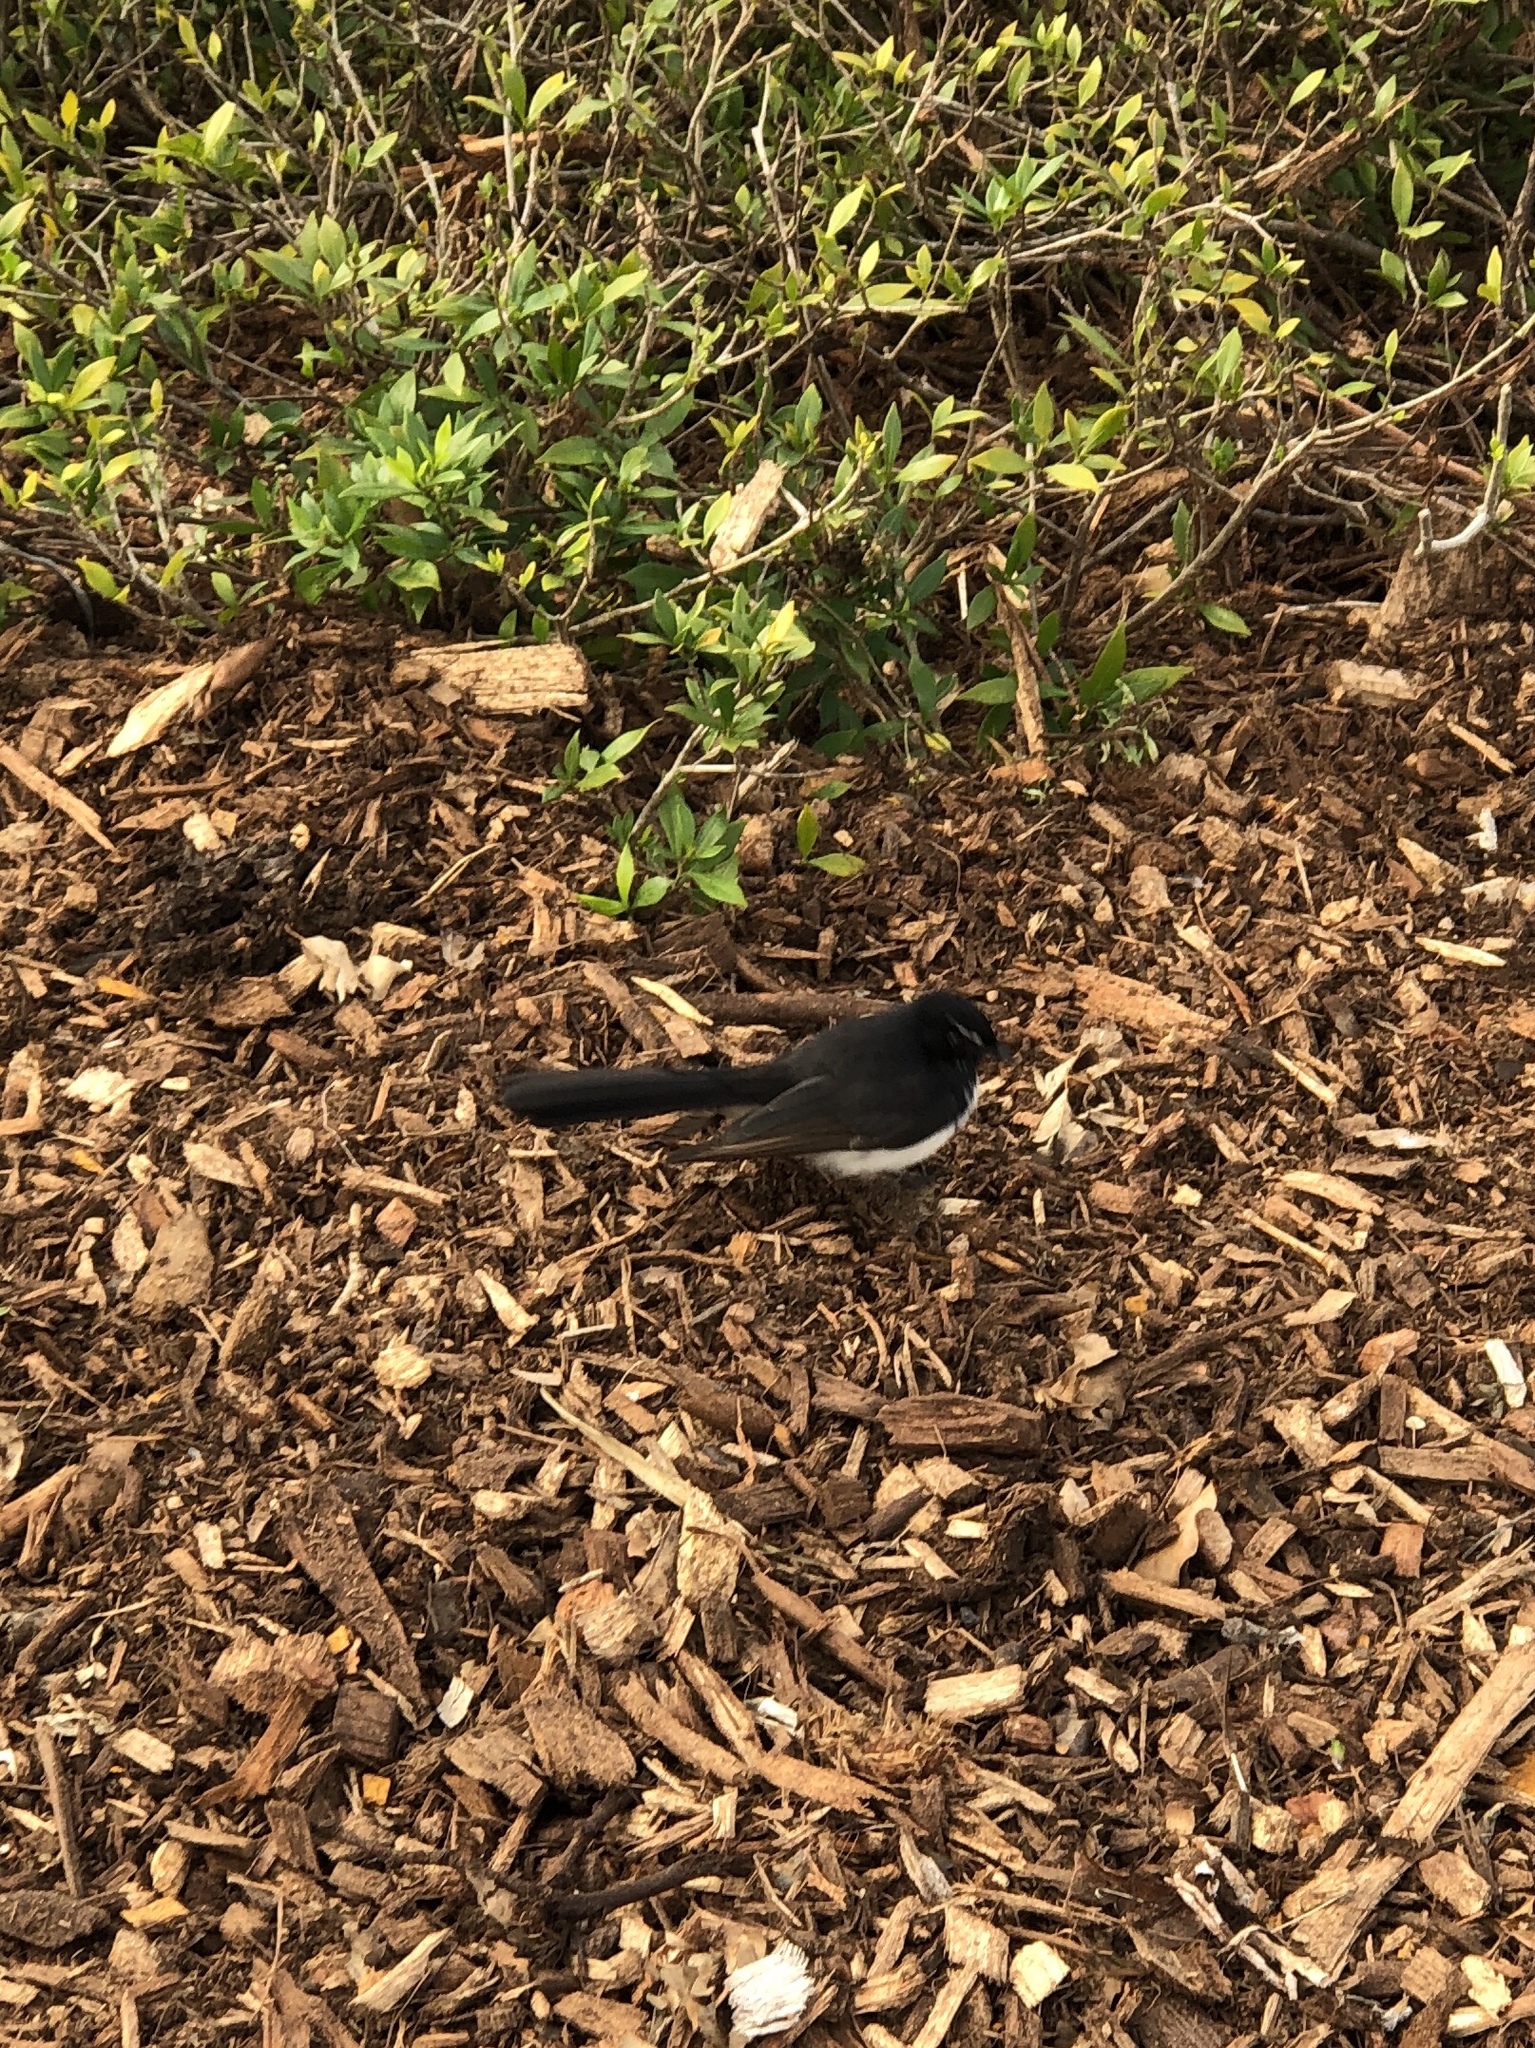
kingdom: Animalia
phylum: Chordata
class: Aves
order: Passeriformes
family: Rhipiduridae
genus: Rhipidura
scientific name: Rhipidura leucophrys
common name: Willie wagtail
